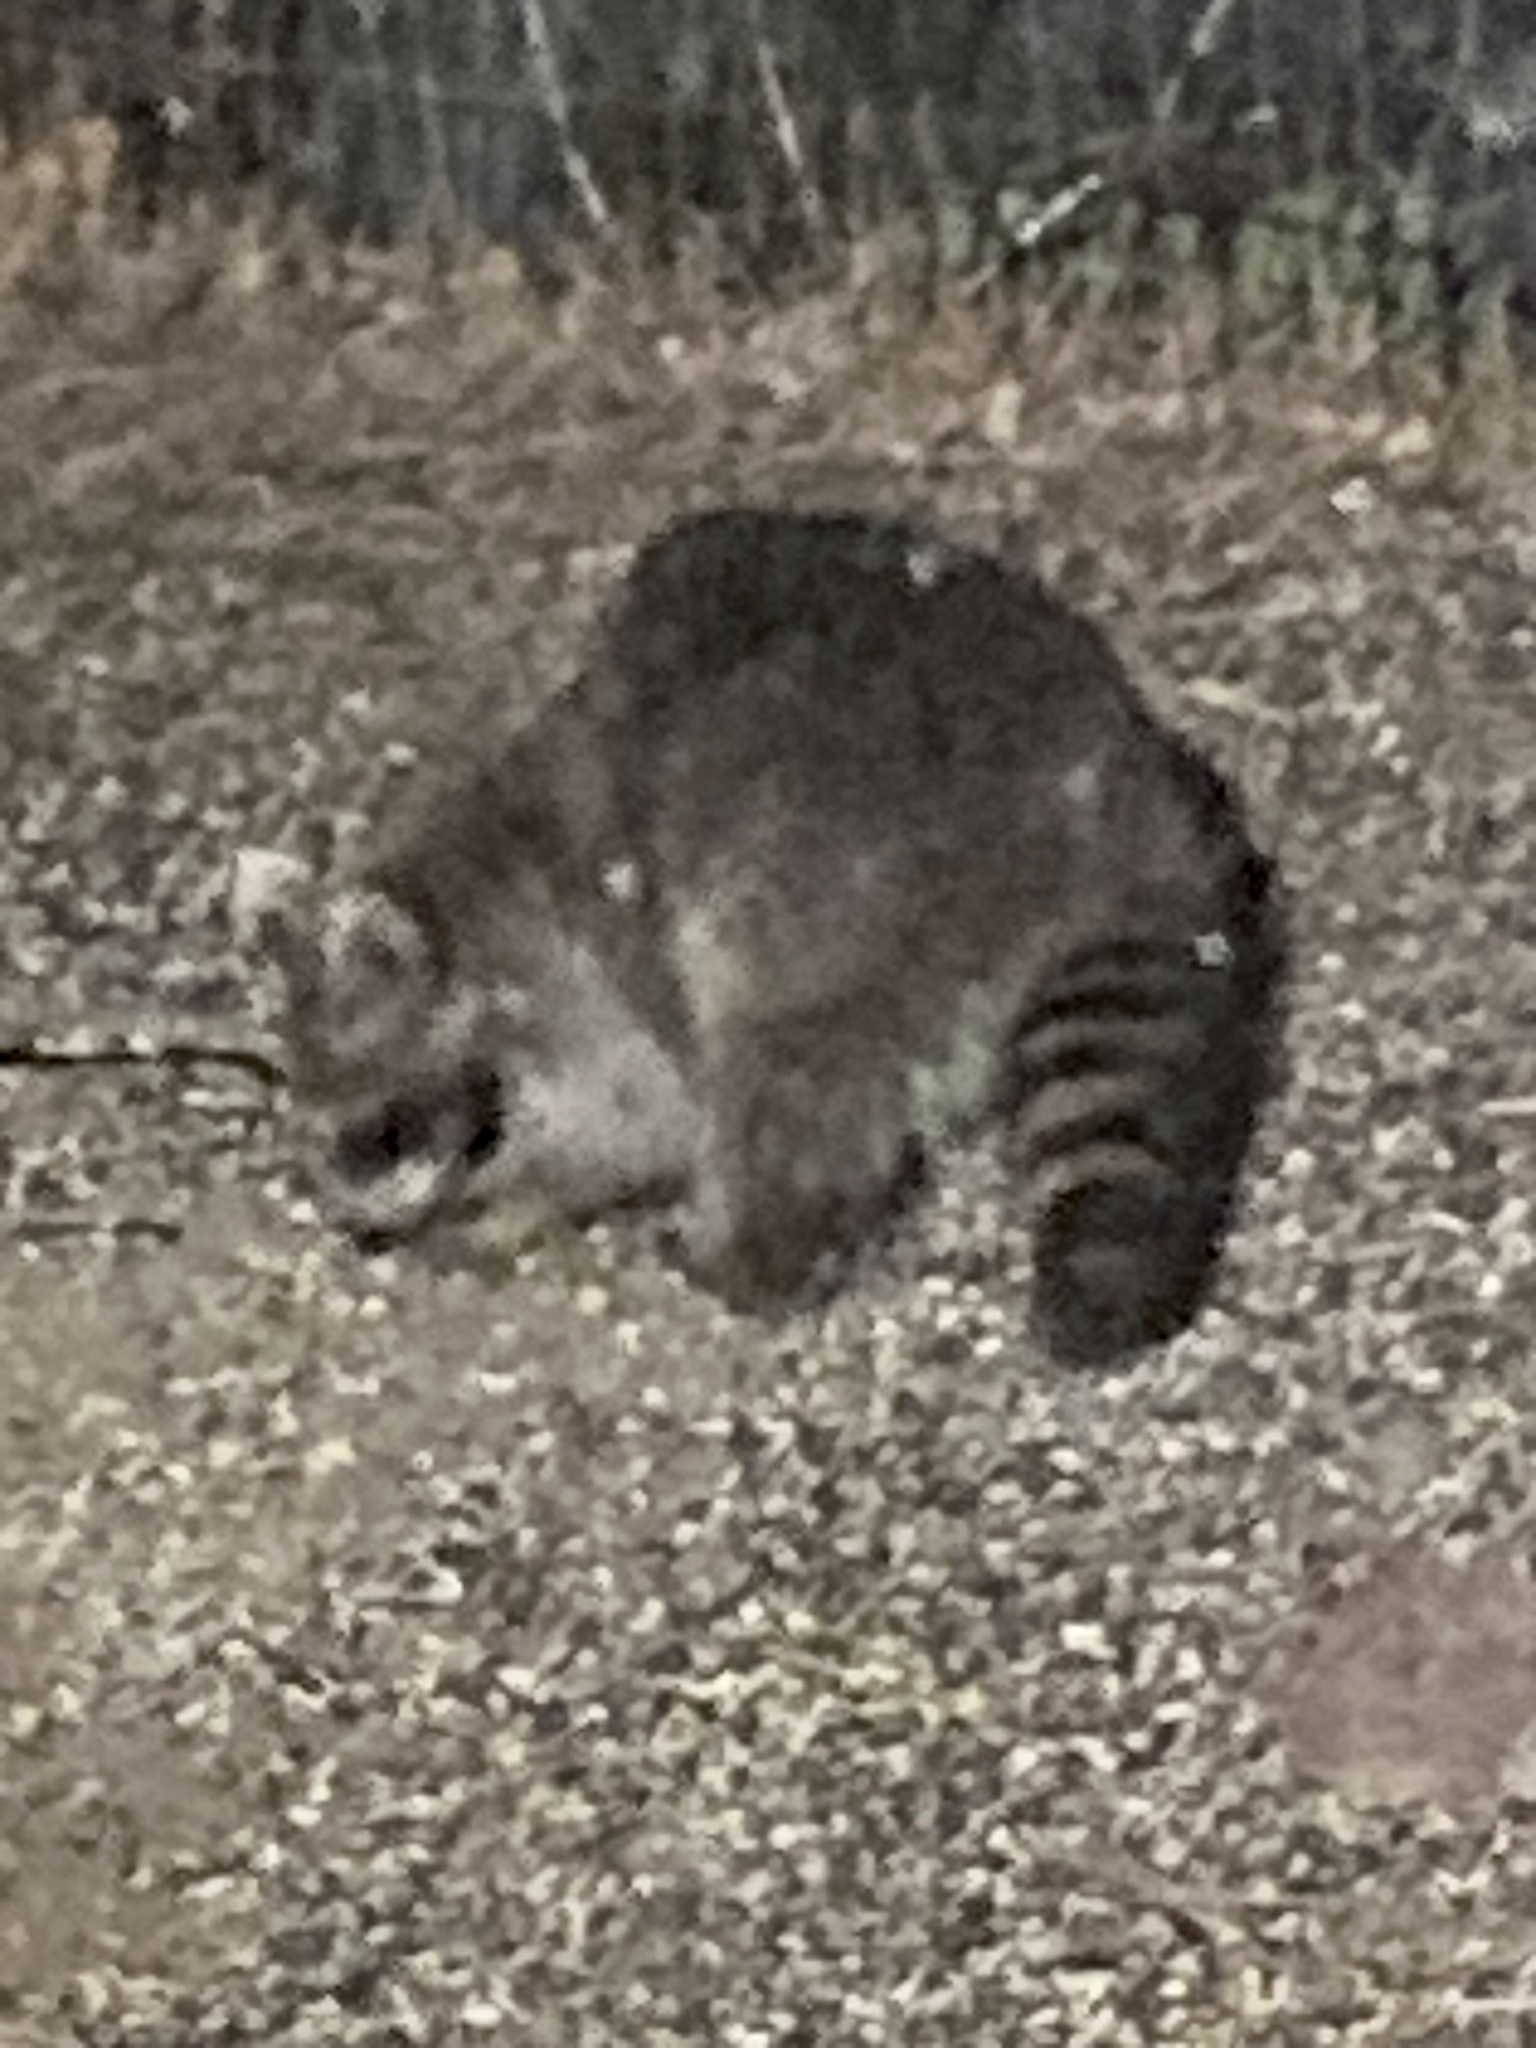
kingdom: Animalia
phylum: Chordata
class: Mammalia
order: Carnivora
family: Procyonidae
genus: Procyon
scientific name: Procyon lotor
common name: Raccoon
